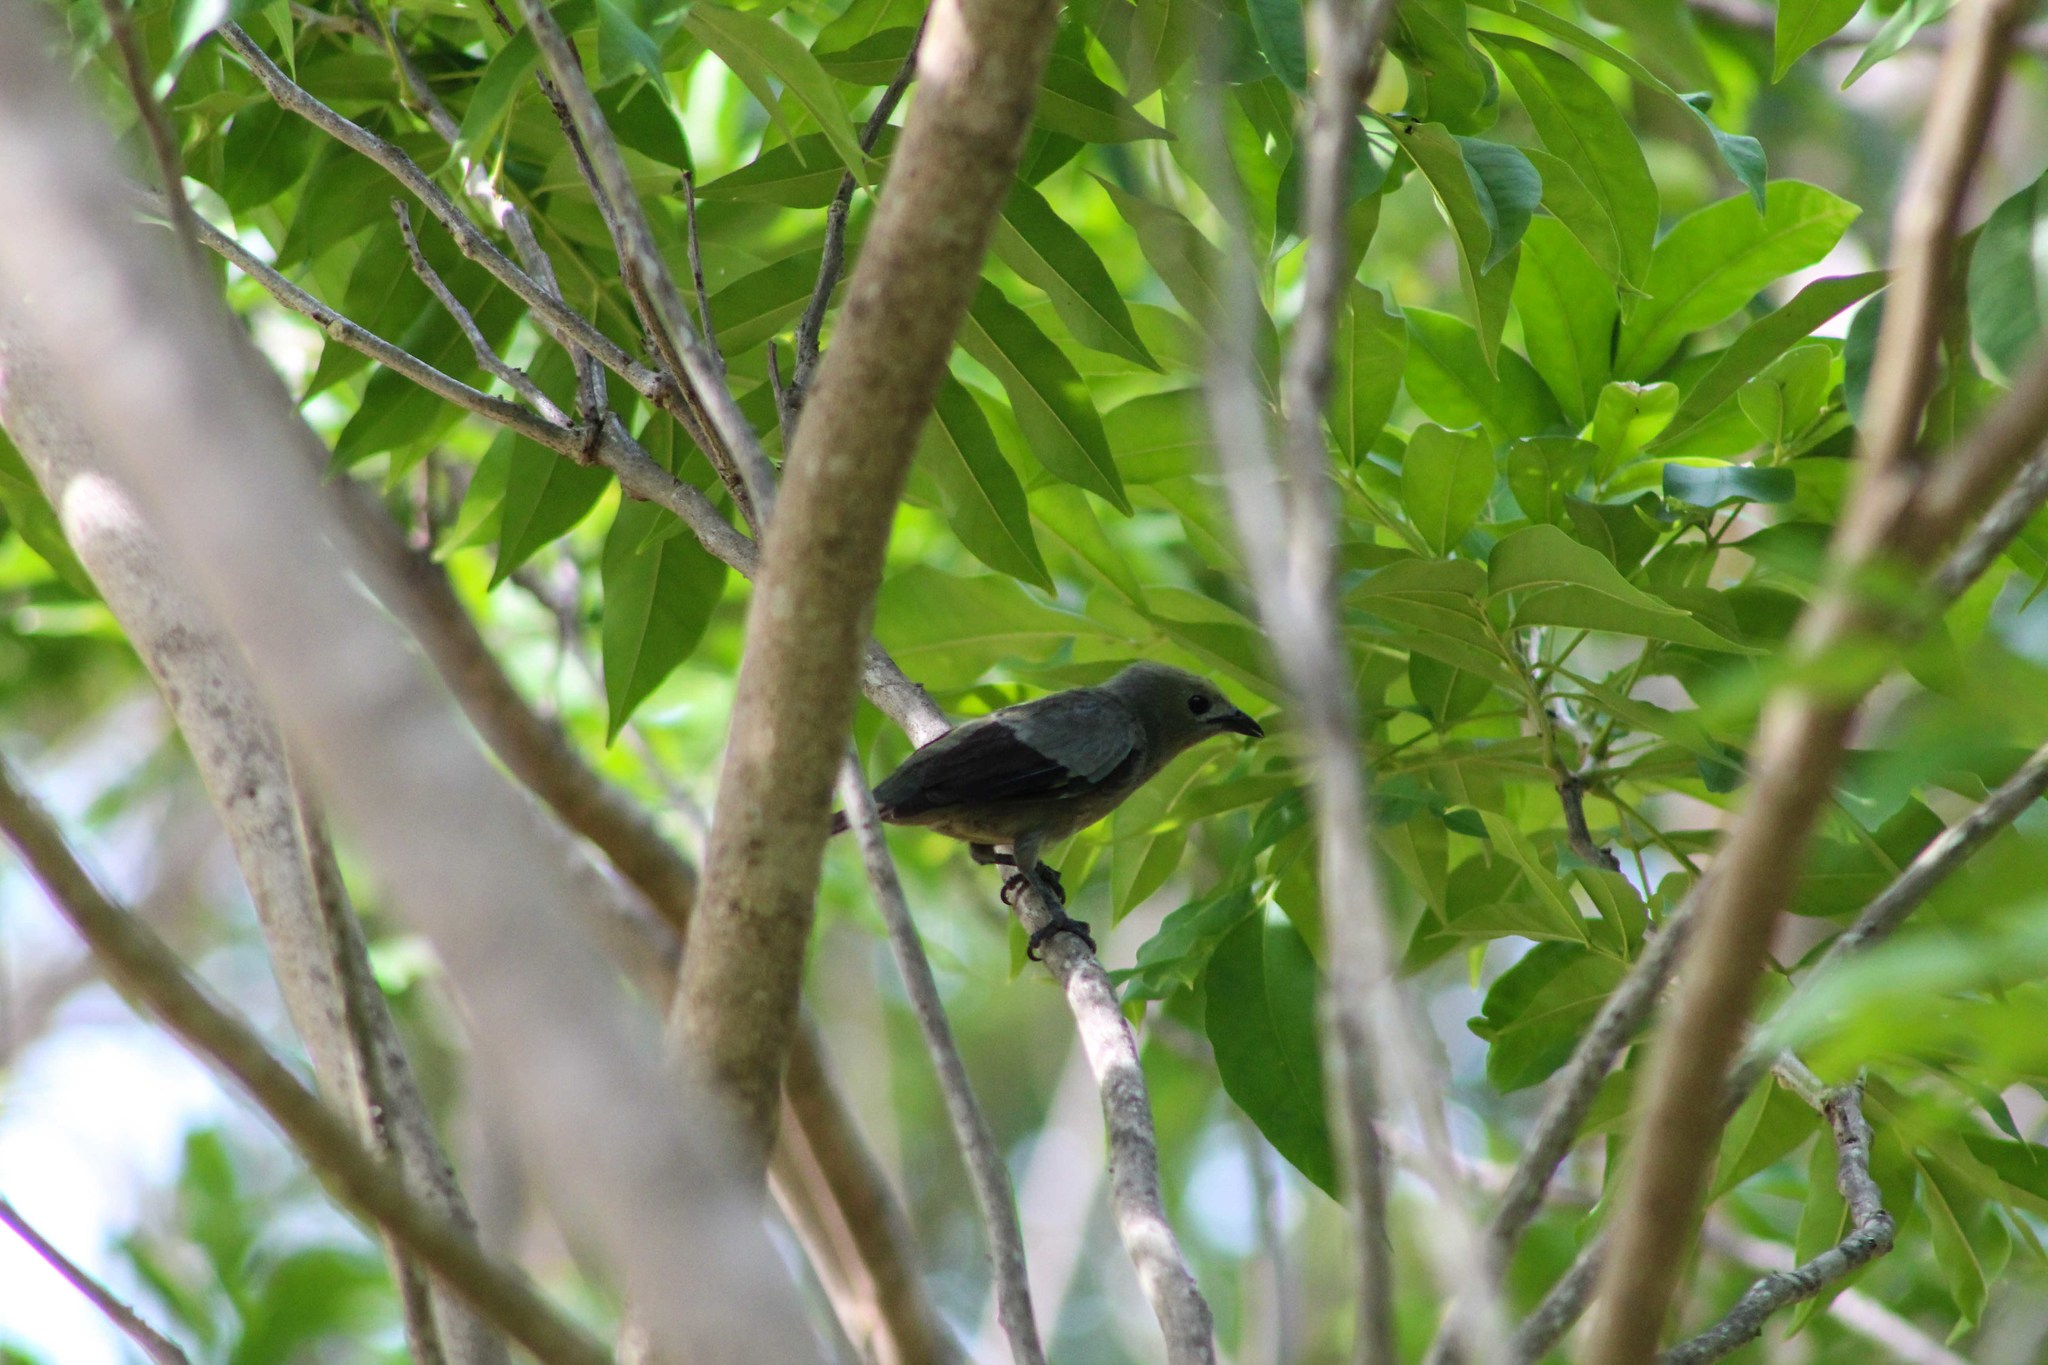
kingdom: Animalia
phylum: Chordata
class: Aves
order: Passeriformes
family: Thraupidae
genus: Thraupis
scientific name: Thraupis palmarum
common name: Palm tanager
